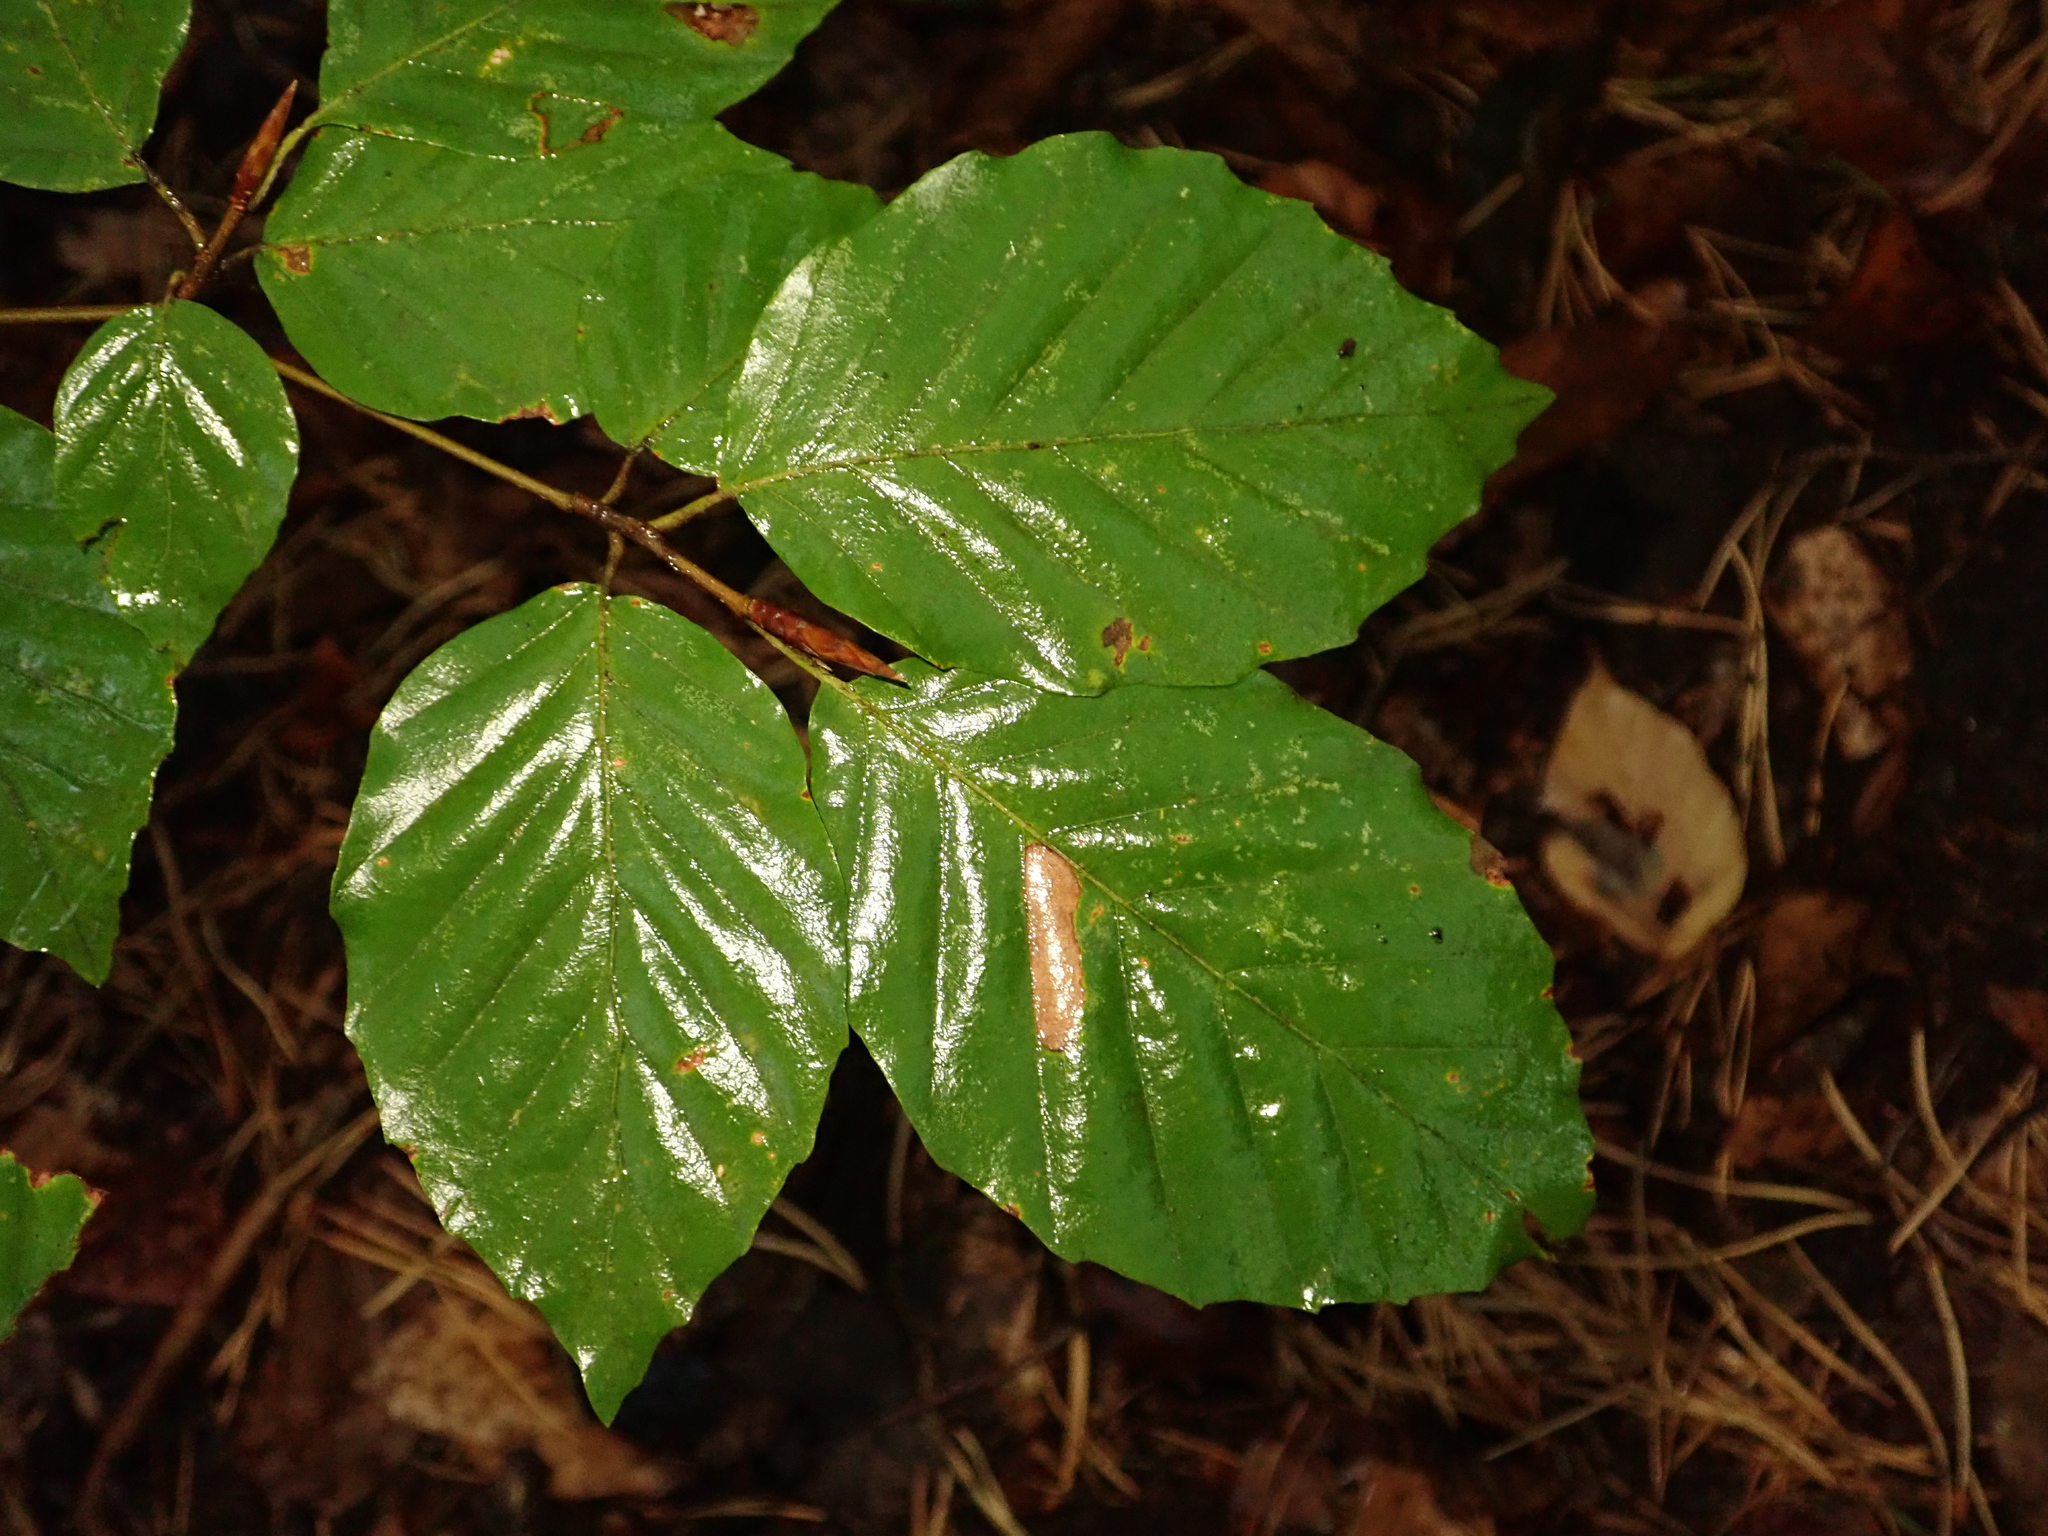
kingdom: Plantae
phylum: Tracheophyta
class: Magnoliopsida
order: Fagales
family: Fagaceae
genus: Fagus
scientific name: Fagus sylvatica
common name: Beech
